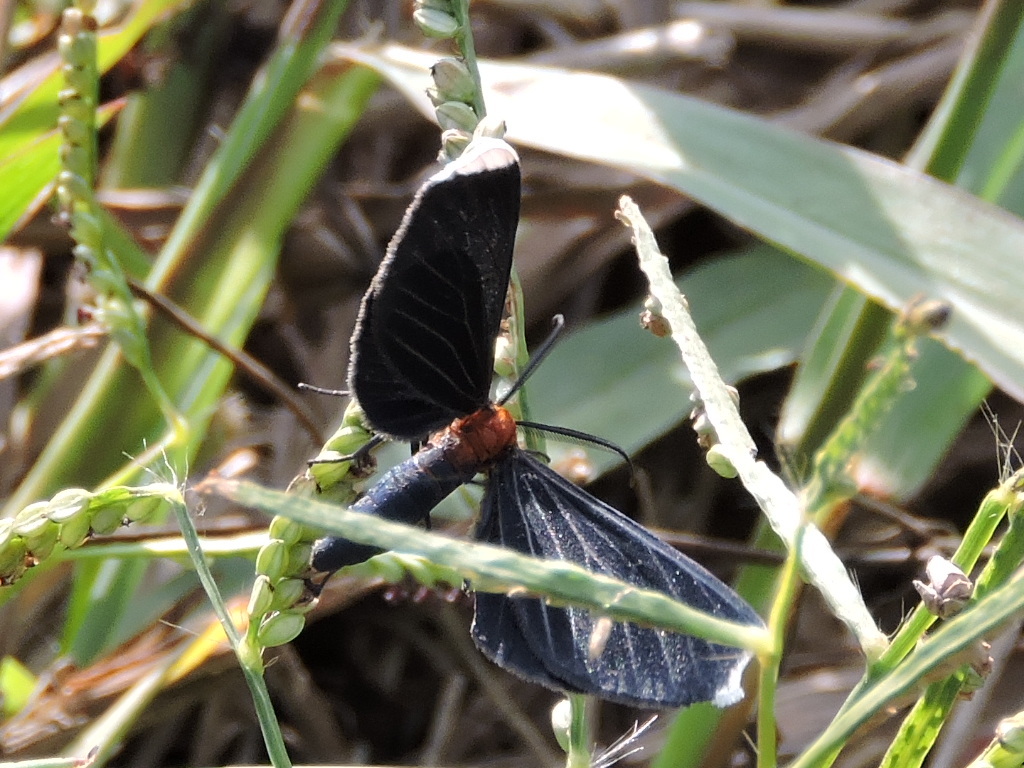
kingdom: Animalia
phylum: Arthropoda
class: Insecta
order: Lepidoptera
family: Geometridae
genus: Melanchroia
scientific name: Melanchroia chephise
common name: White-tipped black
